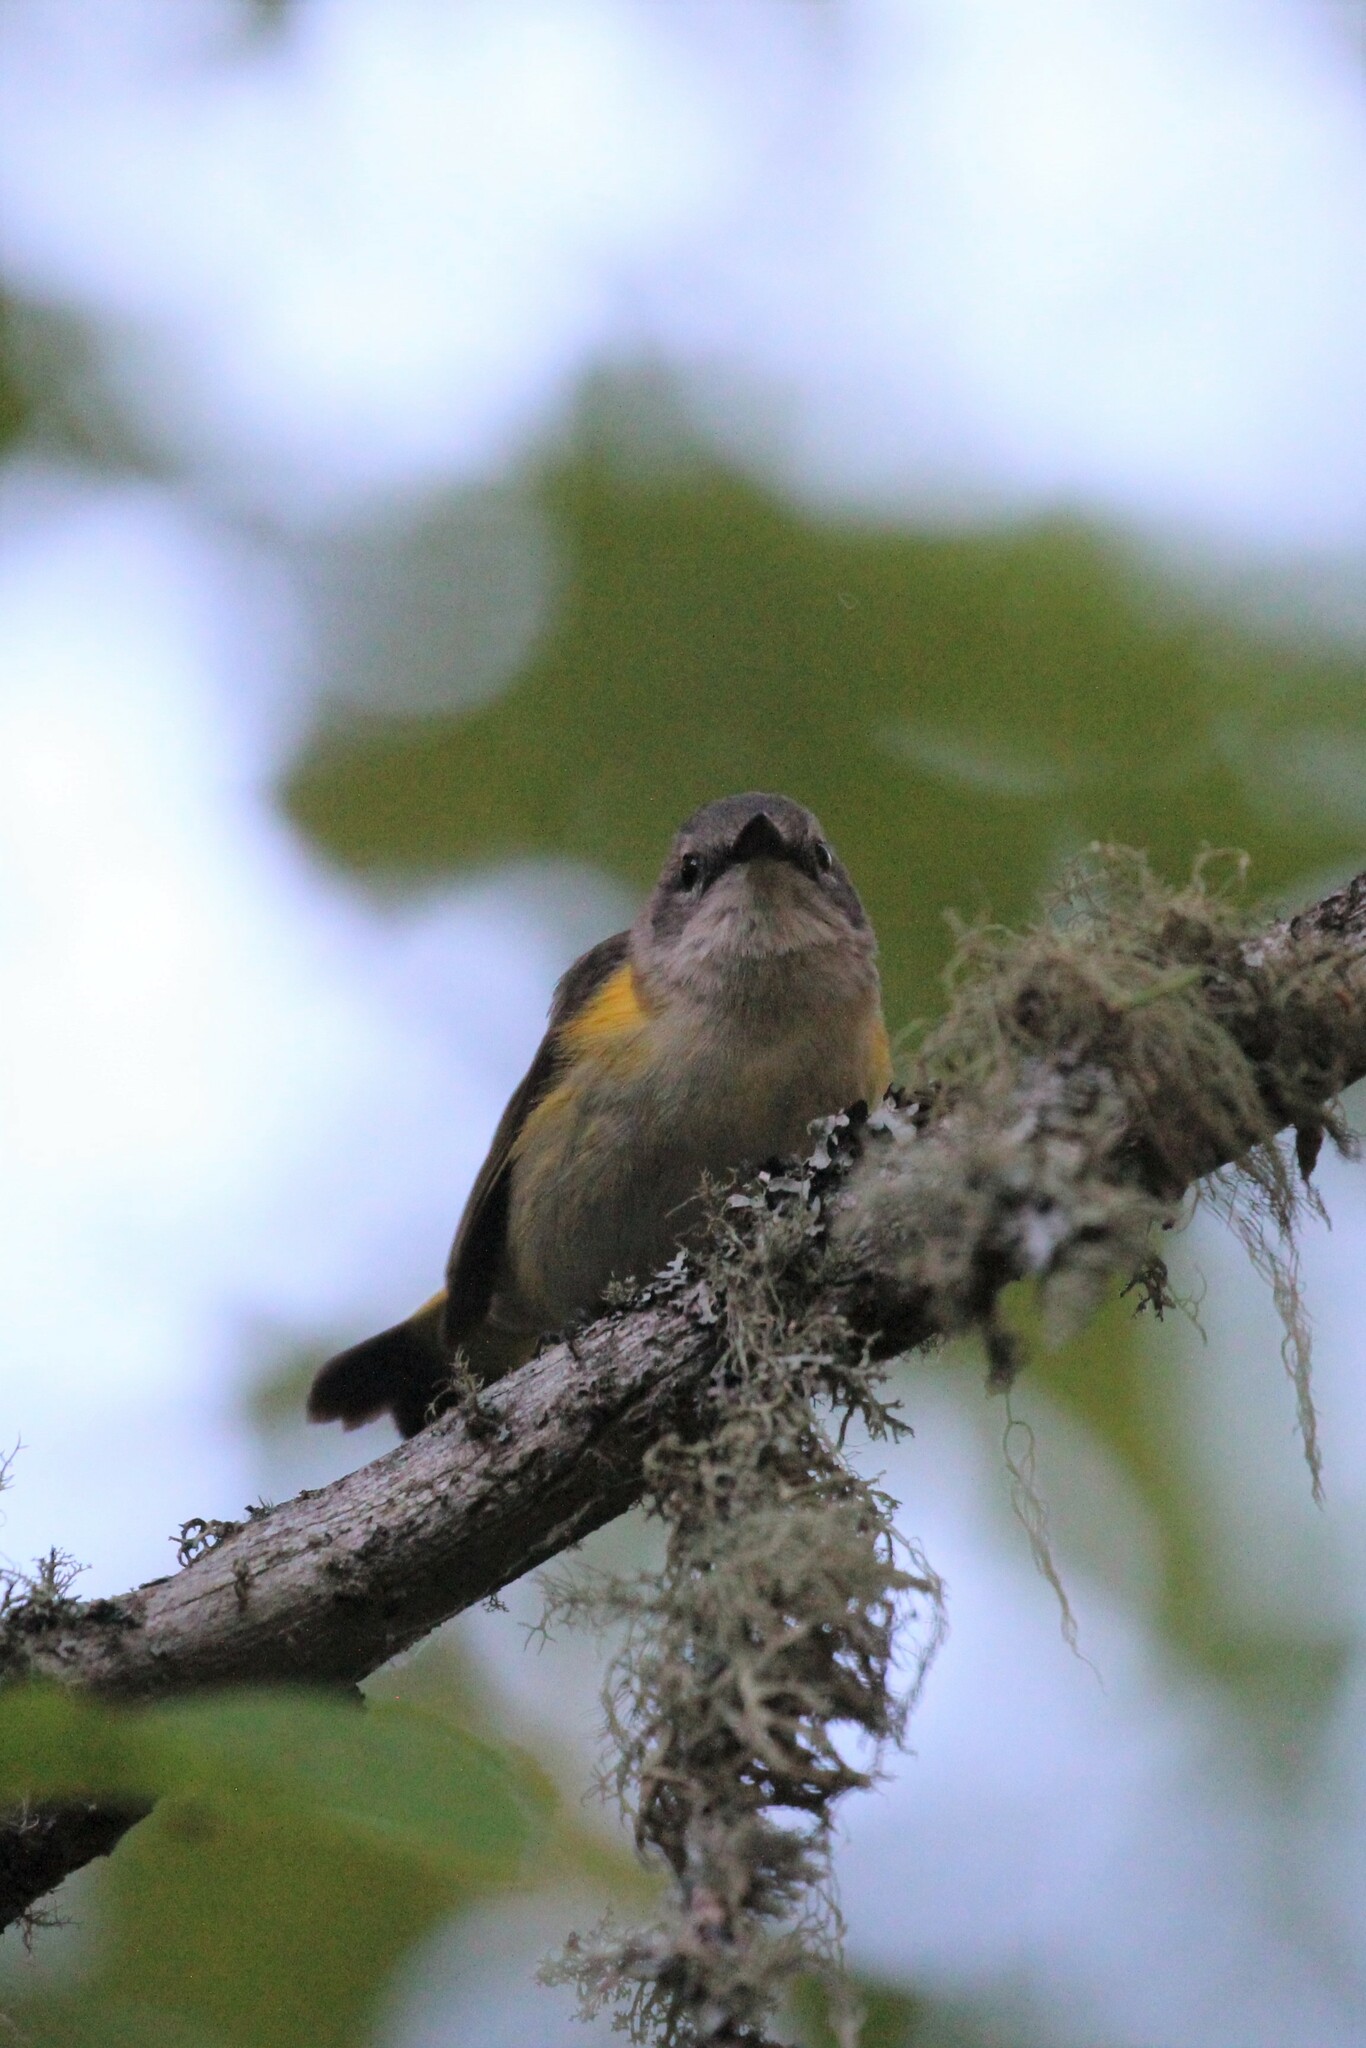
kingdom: Animalia
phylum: Chordata
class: Aves
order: Passeriformes
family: Parulidae
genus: Setophaga
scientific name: Setophaga ruticilla
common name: American redstart
